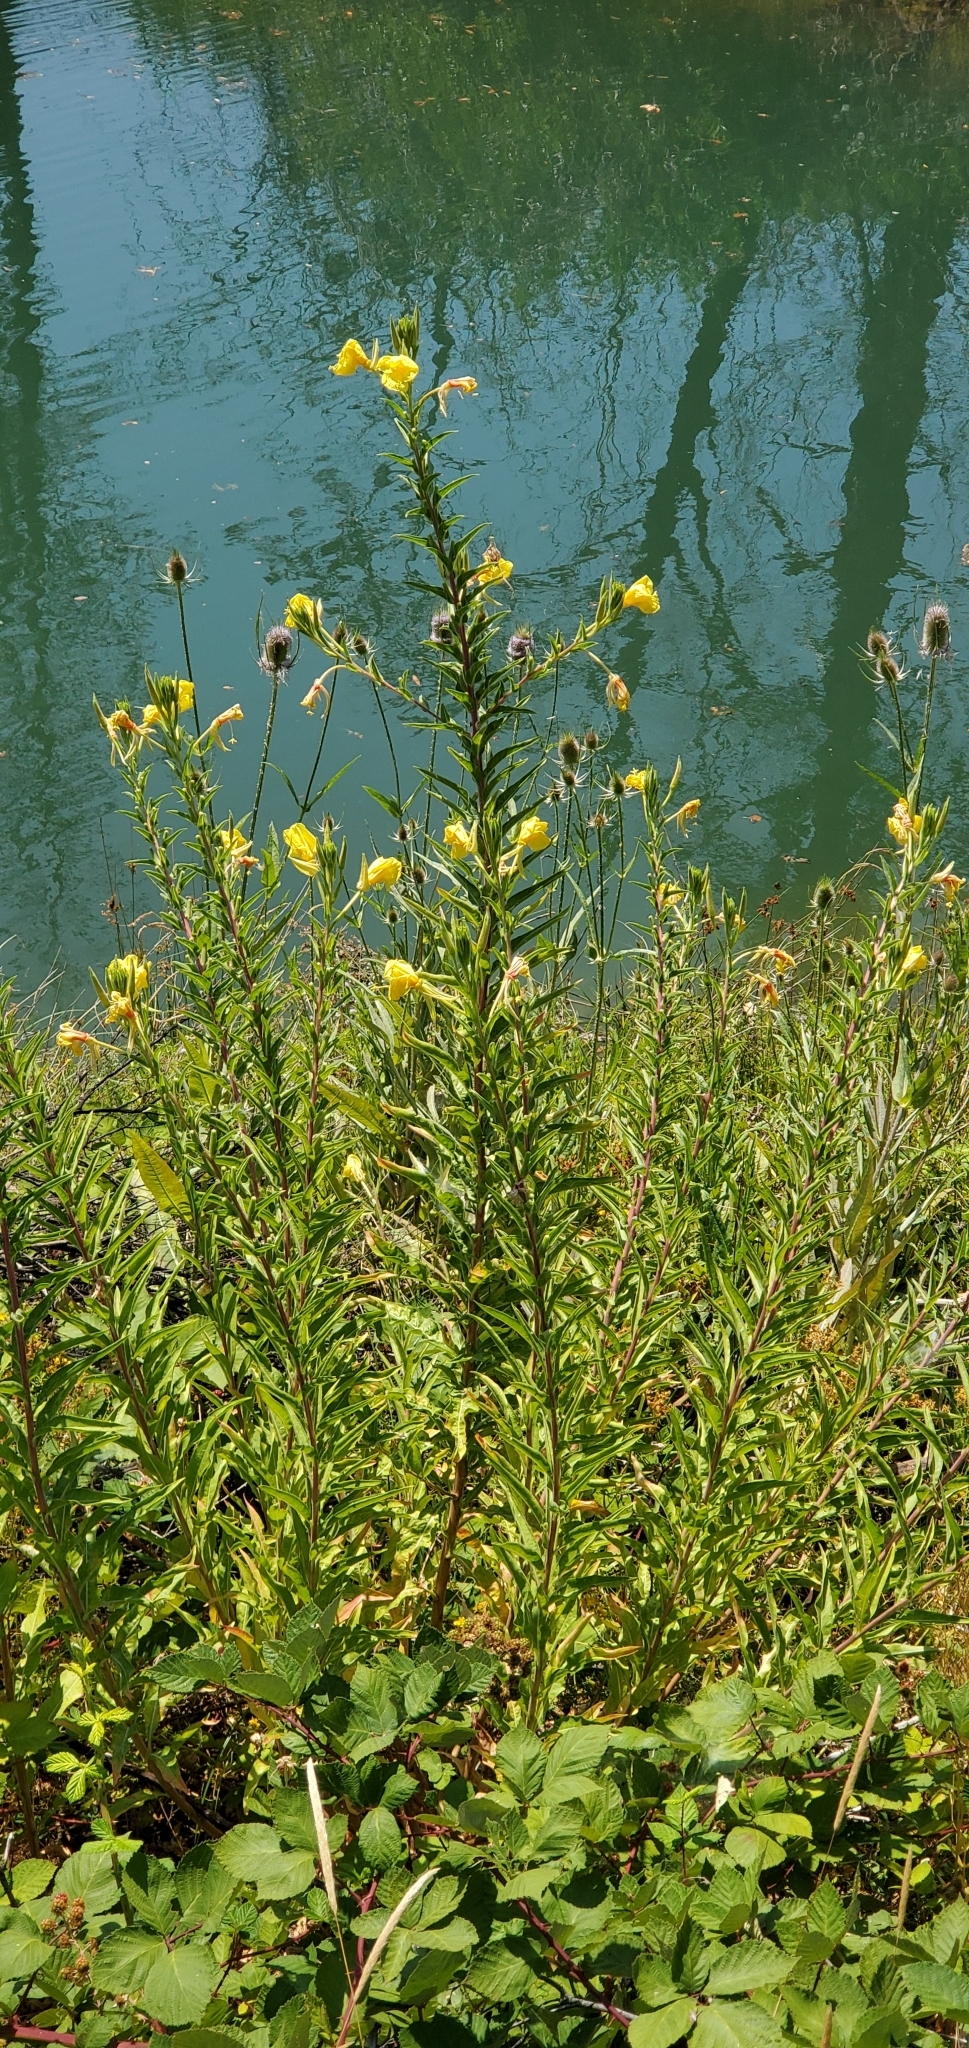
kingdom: Plantae
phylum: Tracheophyta
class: Magnoliopsida
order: Myrtales
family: Onagraceae
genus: Oenothera
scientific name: Oenothera elata
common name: Hooker's evening-primrose
